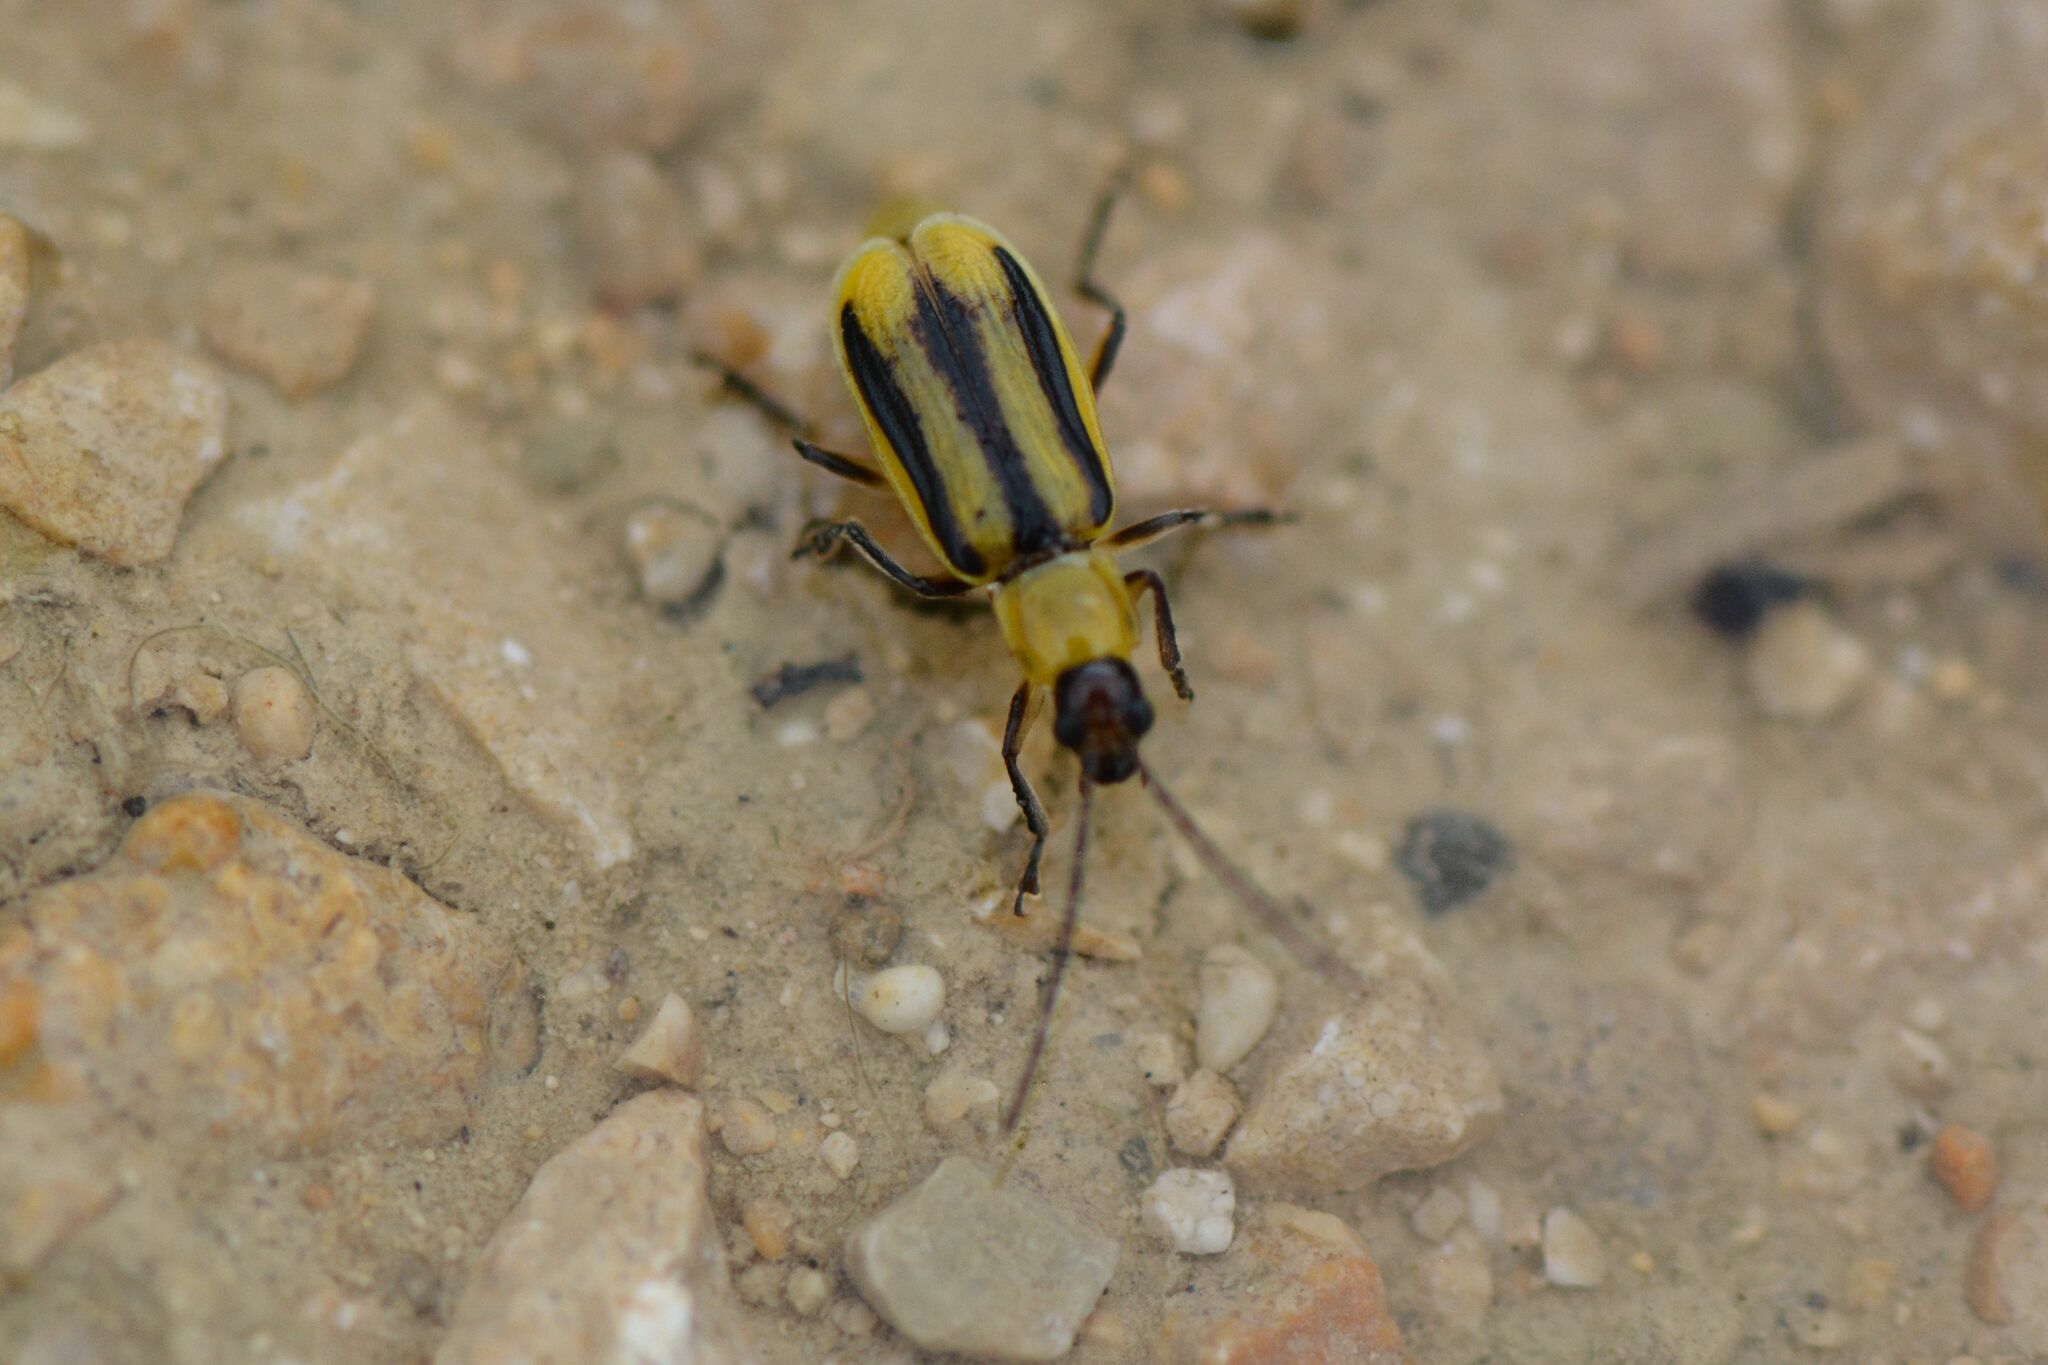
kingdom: Animalia
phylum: Arthropoda
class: Insecta
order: Coleoptera
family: Chrysomelidae
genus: Diabrotica
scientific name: Diabrotica virgifera
